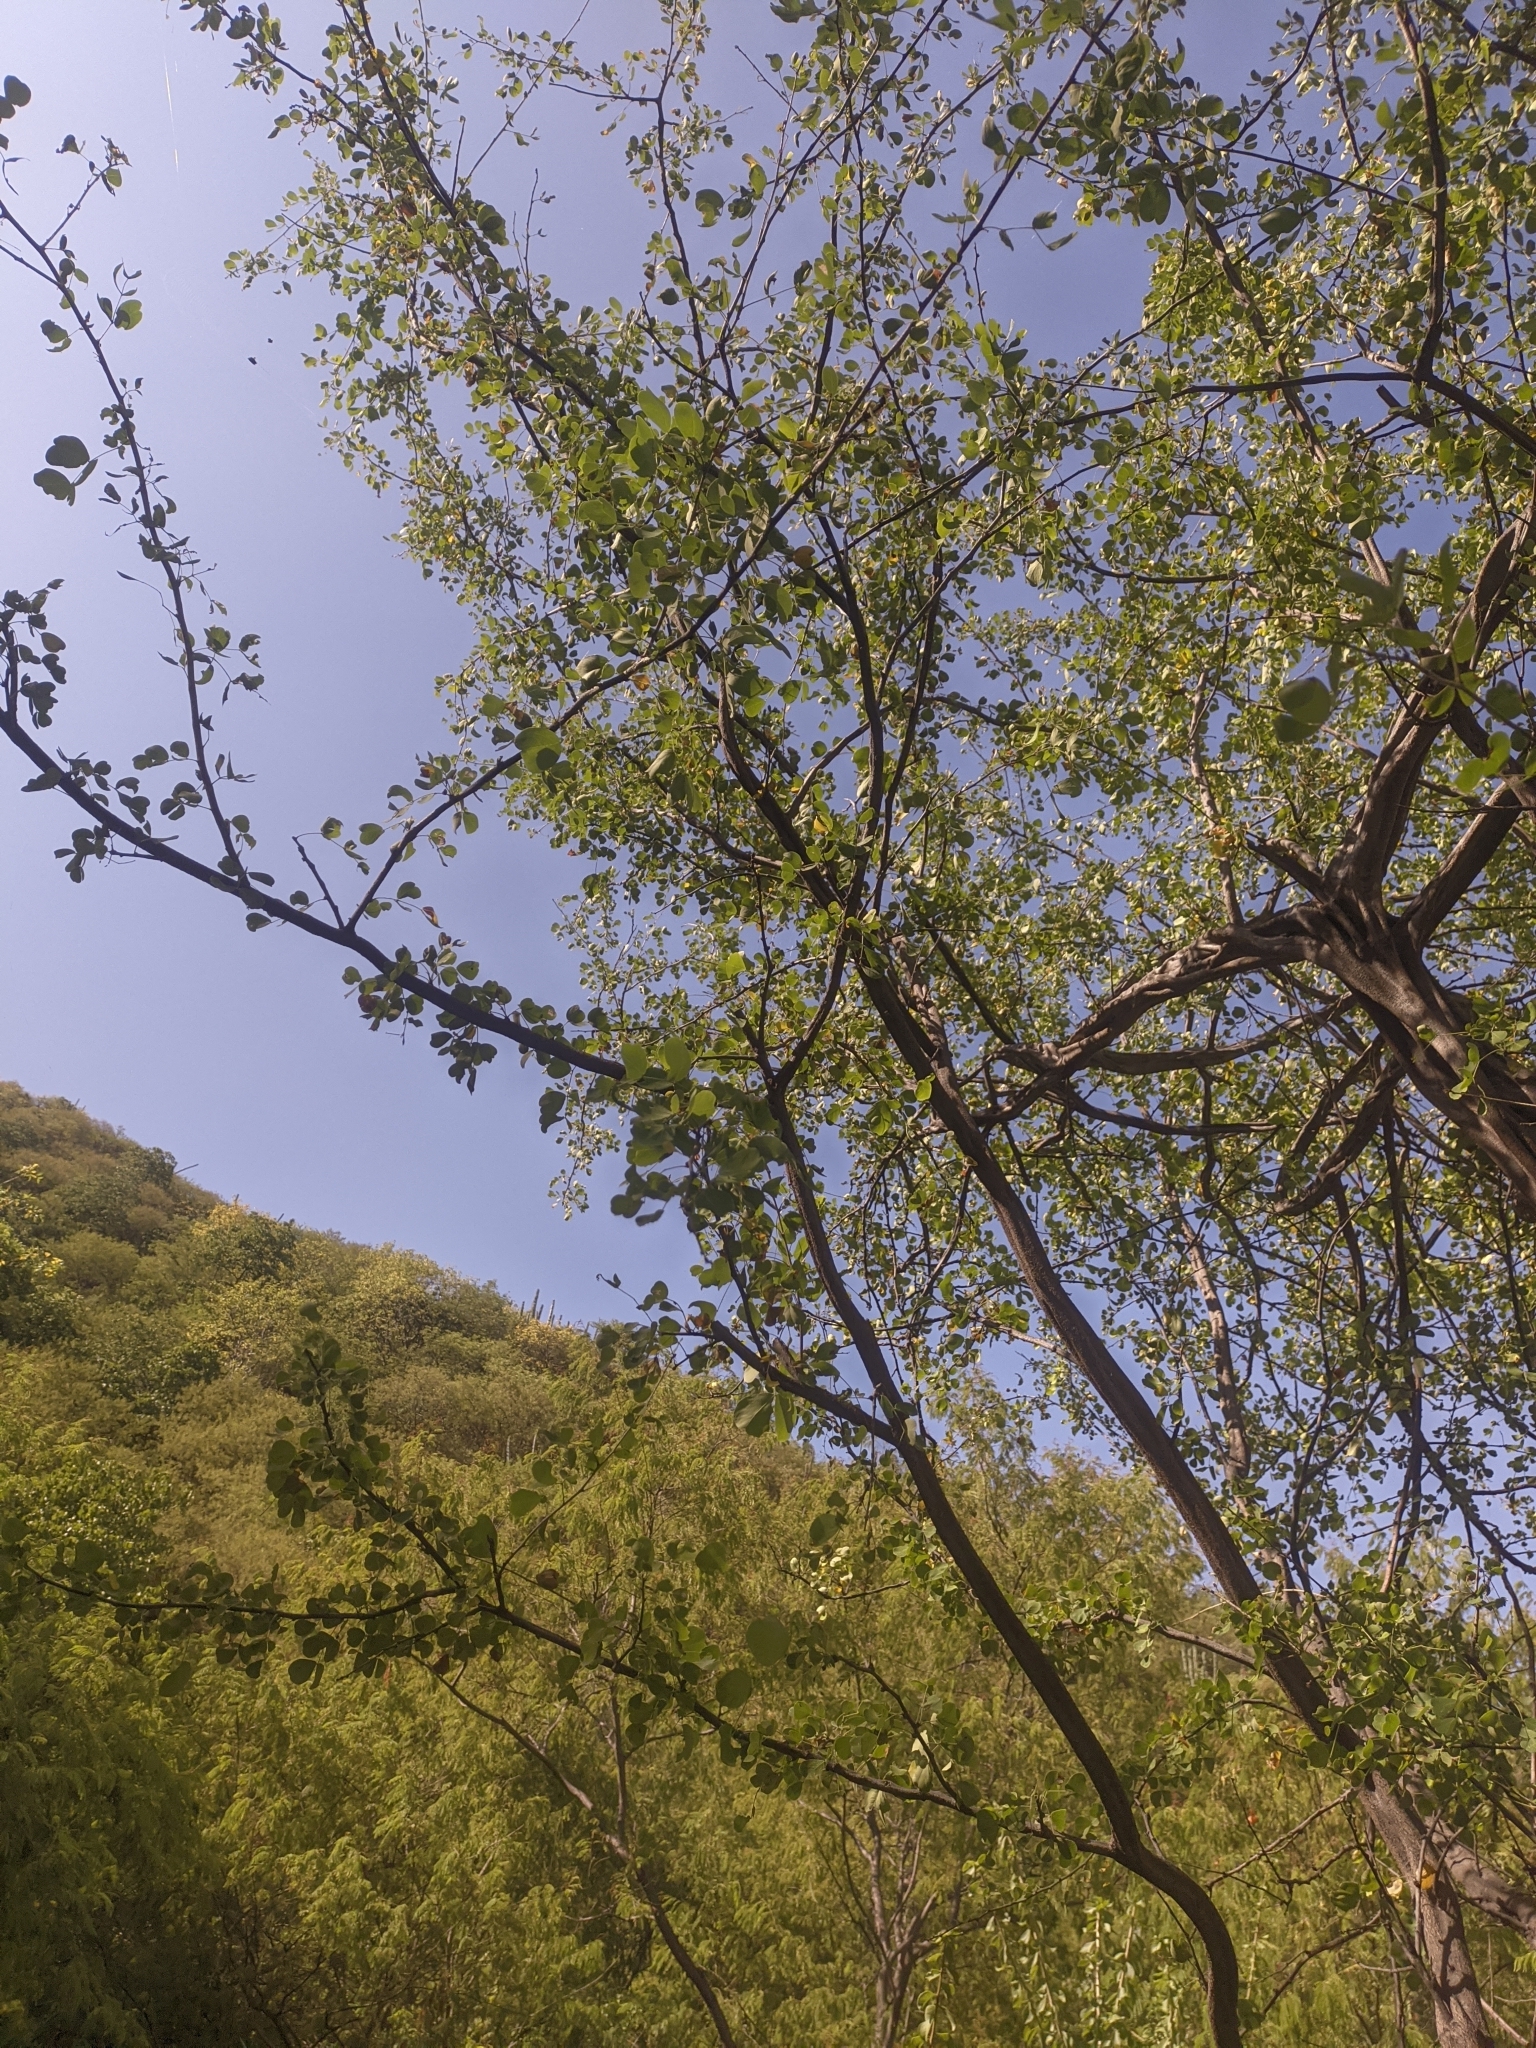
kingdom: Plantae
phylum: Tracheophyta
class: Magnoliopsida
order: Fabales
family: Fabaceae
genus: Haematoxylum
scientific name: Haematoxylum brasiletto
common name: Peachwood
